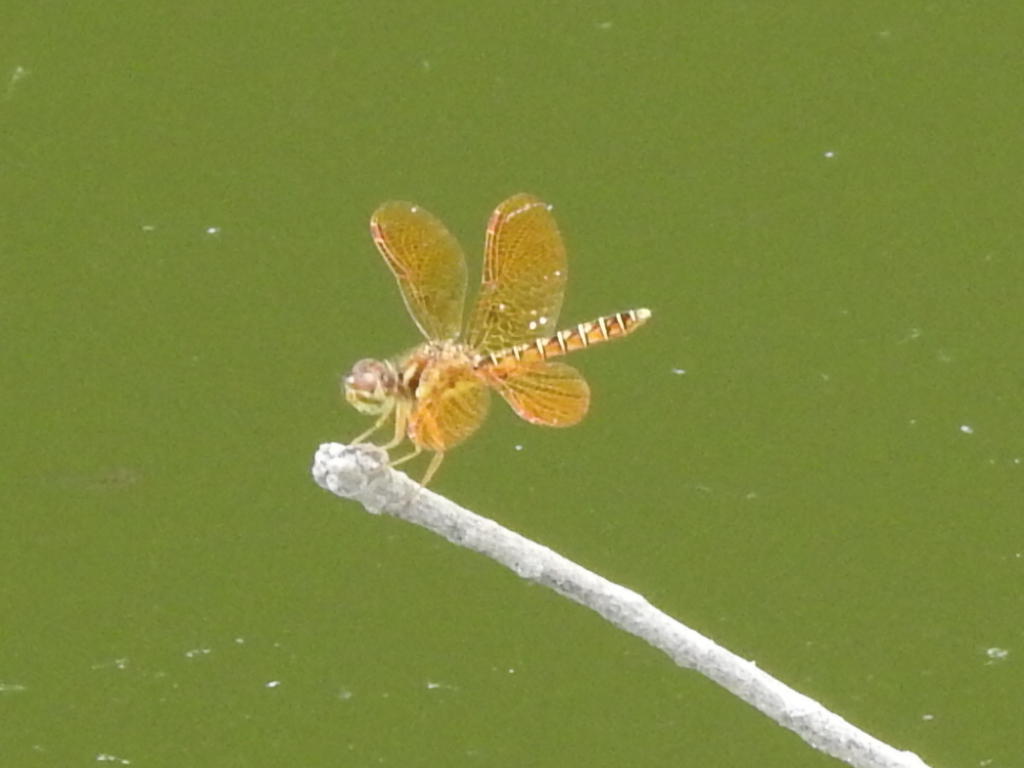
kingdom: Animalia
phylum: Arthropoda
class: Insecta
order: Odonata
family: Libellulidae
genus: Perithemis
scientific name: Perithemis tenera
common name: Eastern amberwing
